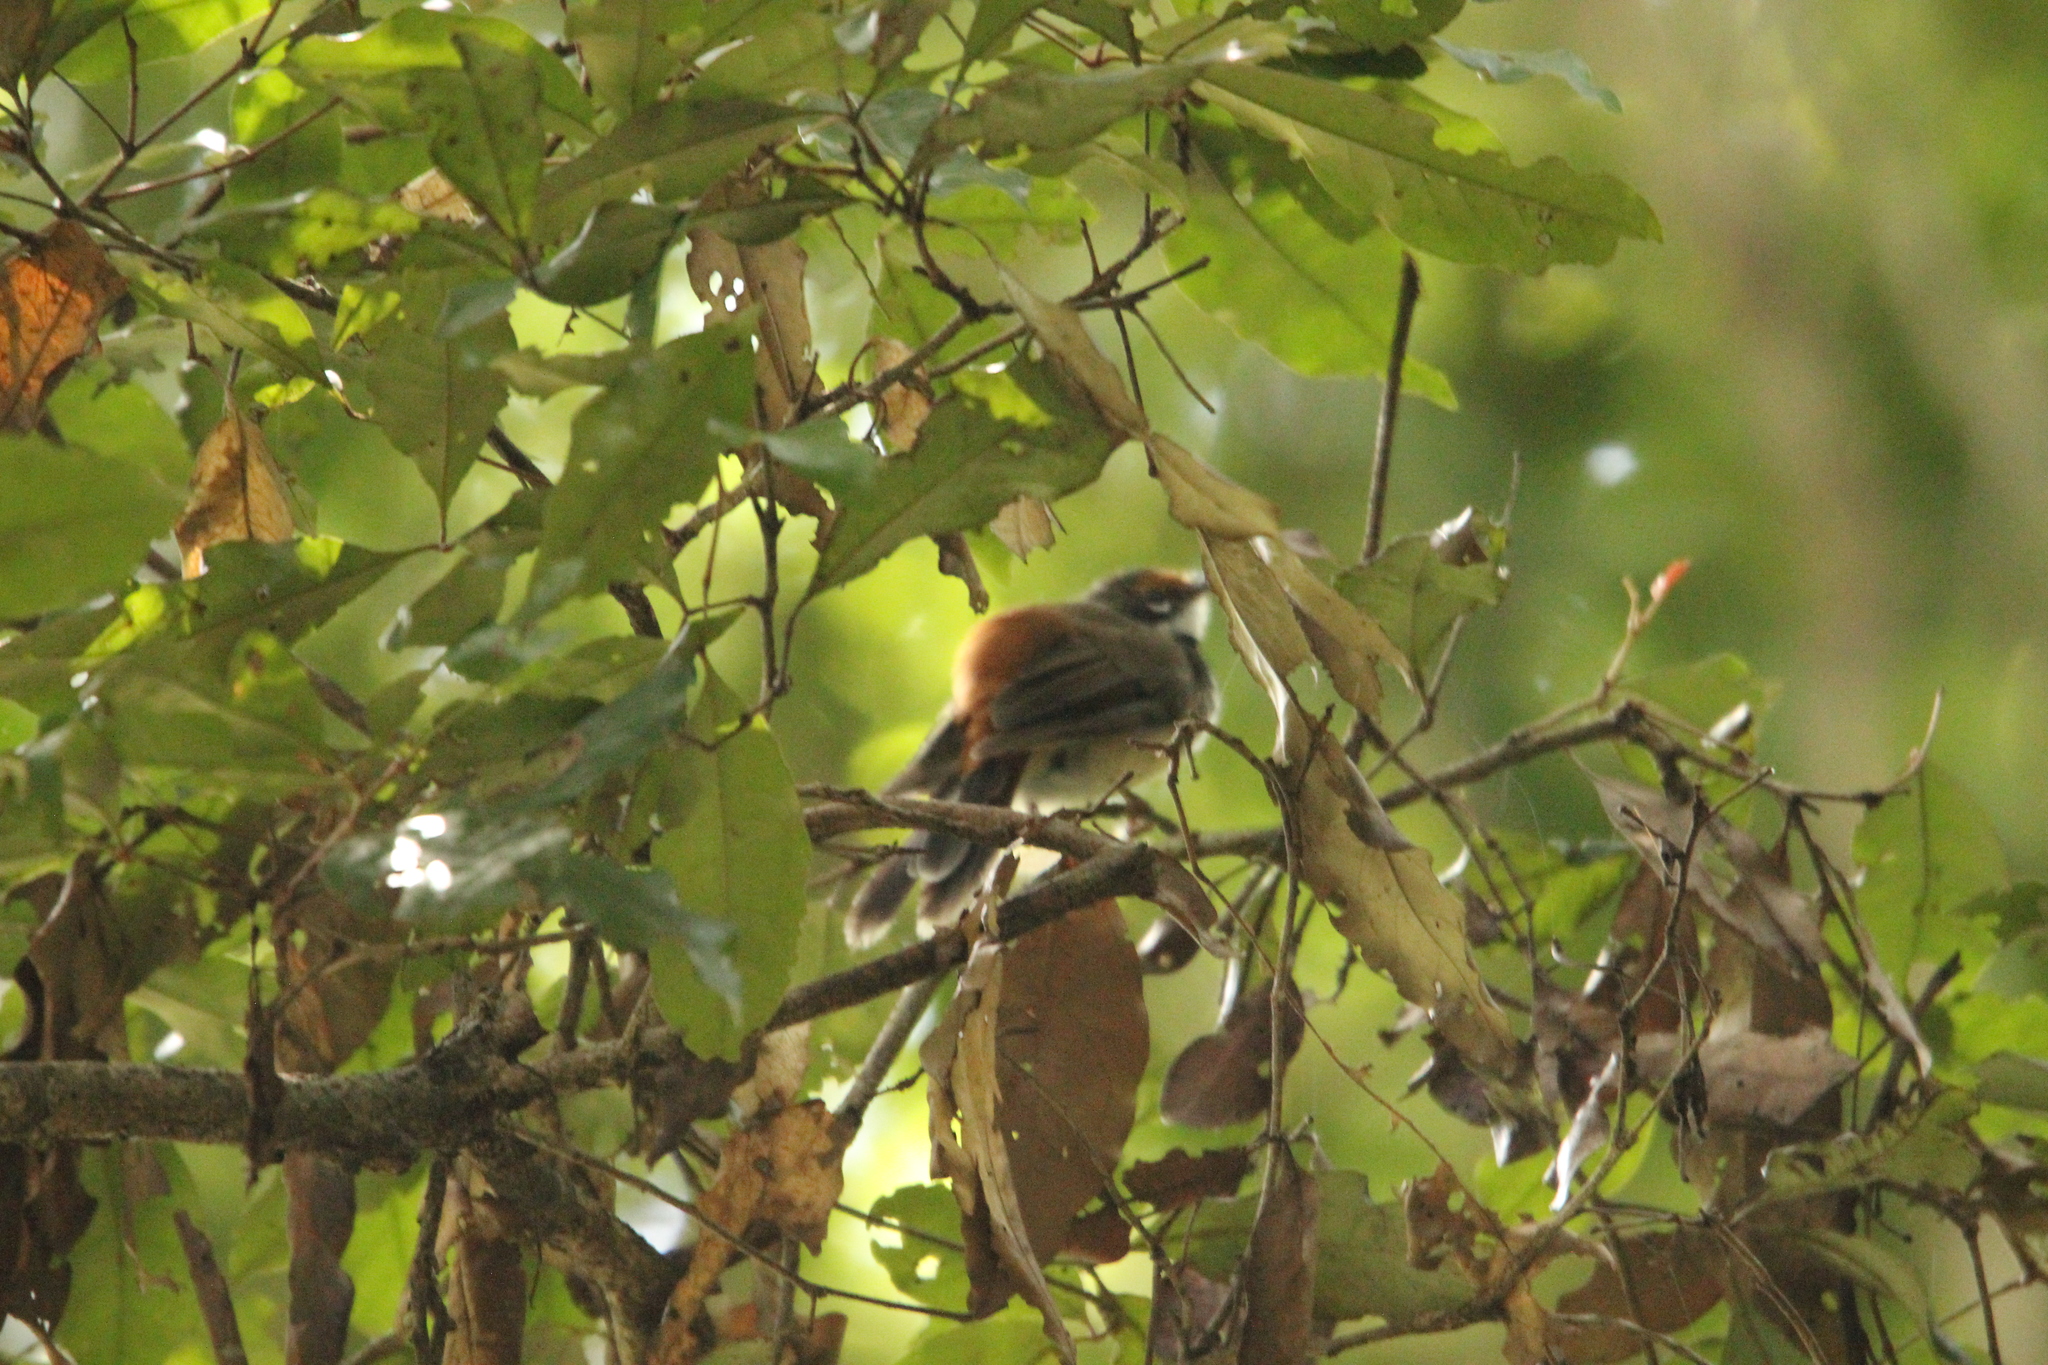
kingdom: Animalia
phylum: Chordata
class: Aves
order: Passeriformes
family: Rhipiduridae
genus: Rhipidura
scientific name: Rhipidura rufifrons
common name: Rufous fantail
